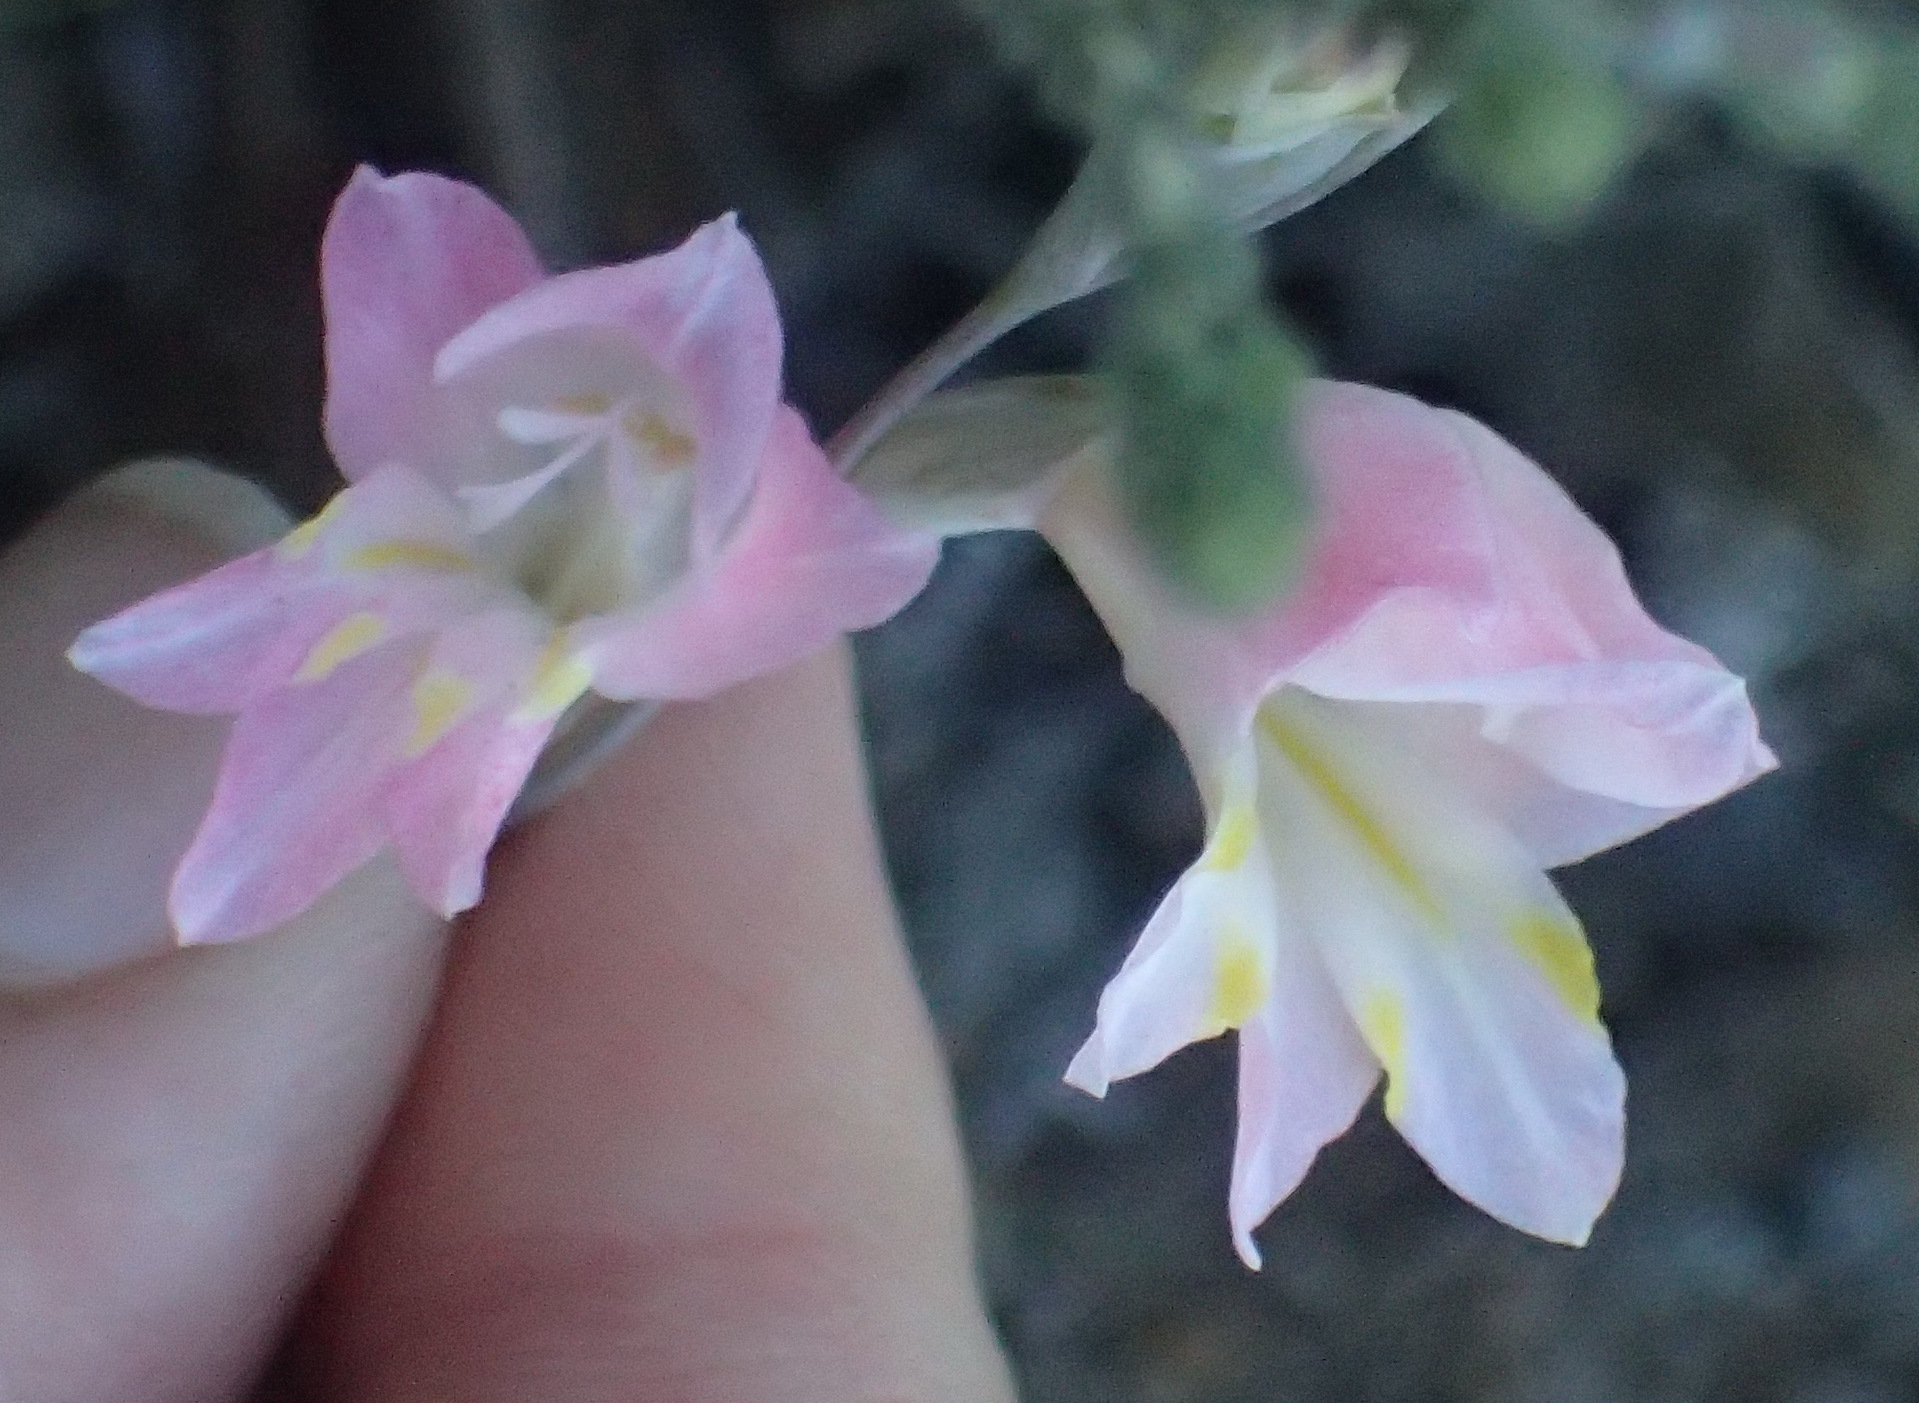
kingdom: Plantae
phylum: Tracheophyta
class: Liliopsida
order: Asparagales
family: Iridaceae
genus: Gladiolus
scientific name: Gladiolus brevifolius
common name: March pypie
